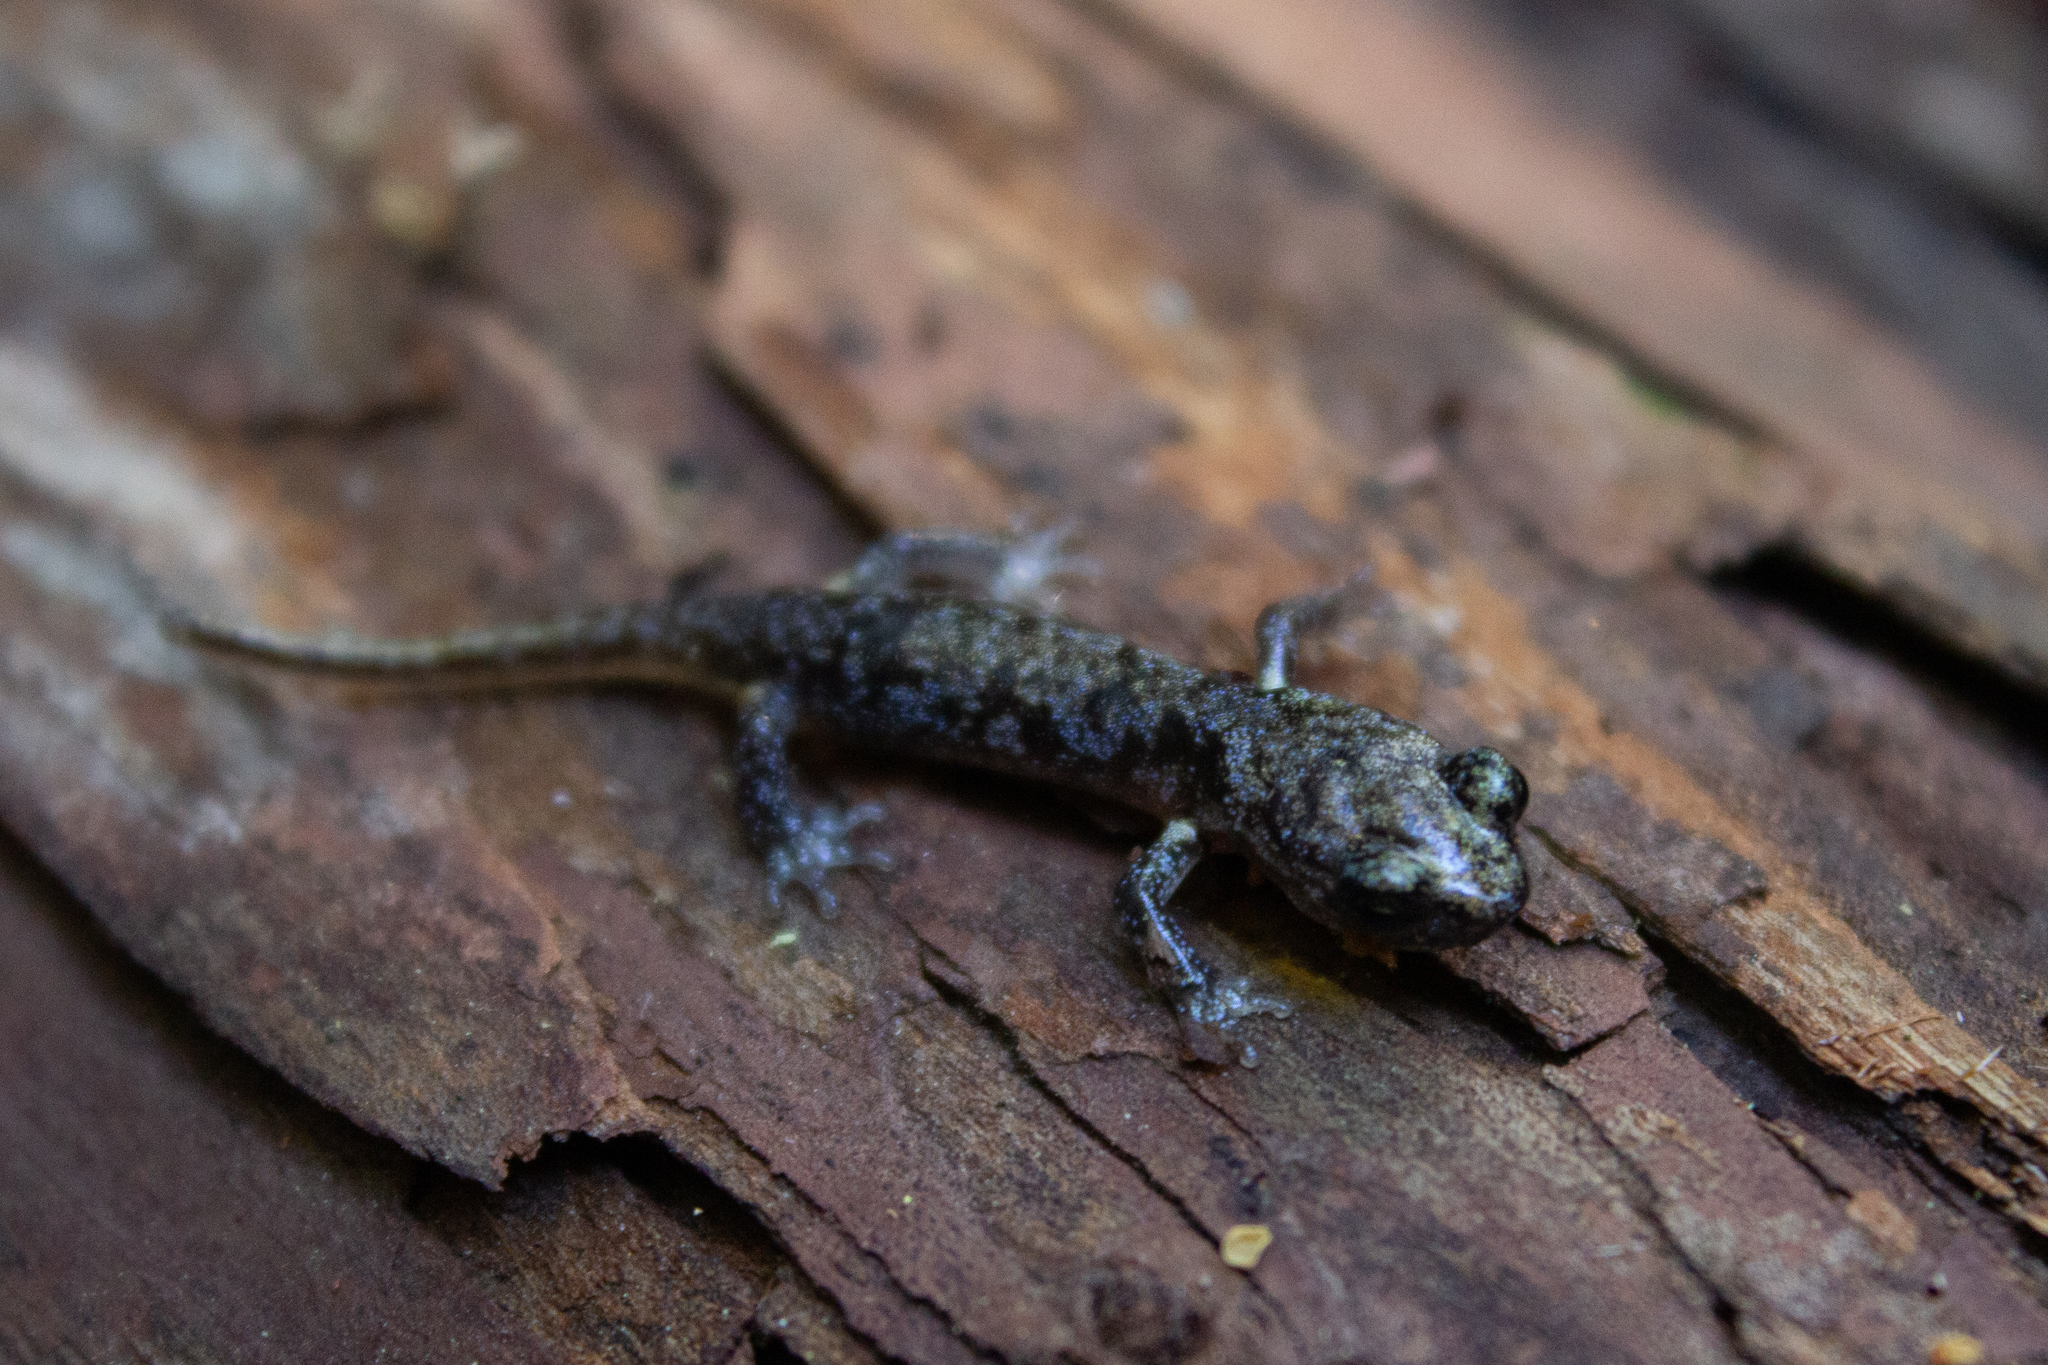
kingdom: Animalia
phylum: Chordata
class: Amphibia
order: Caudata
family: Plethodontidae
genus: Aneides
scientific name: Aneides lugubris
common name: Arboreal salamander
